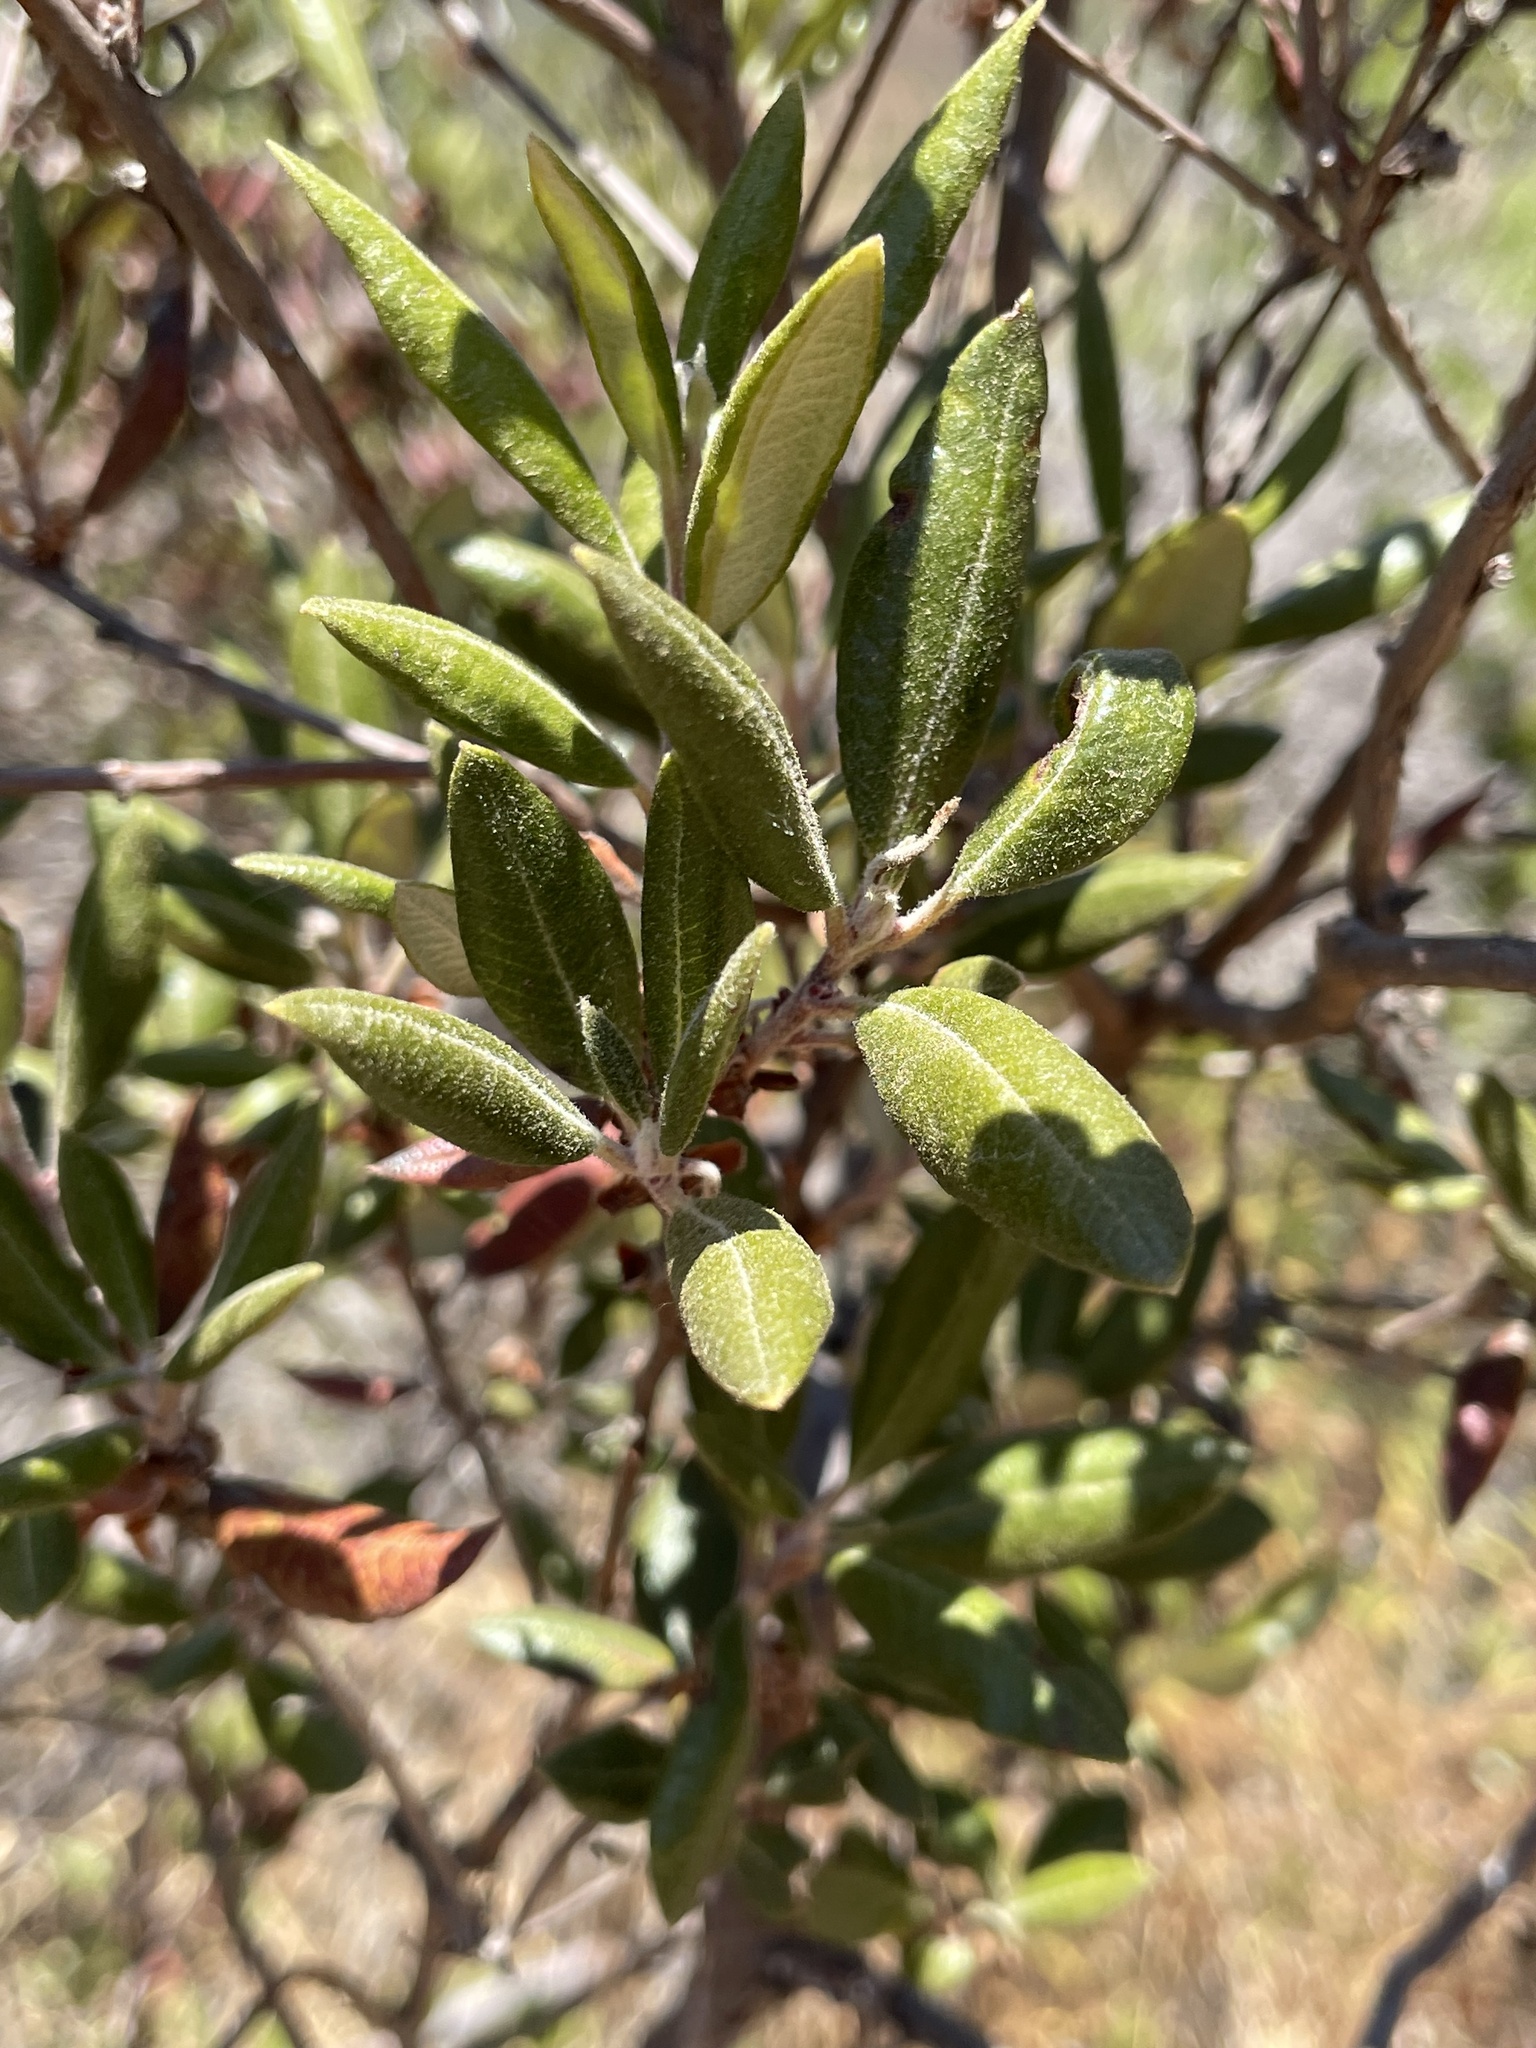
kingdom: Plantae
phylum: Tracheophyta
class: Magnoliopsida
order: Ericales
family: Ericaceae
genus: Arctostaphylos
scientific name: Arctostaphylos bicolor
